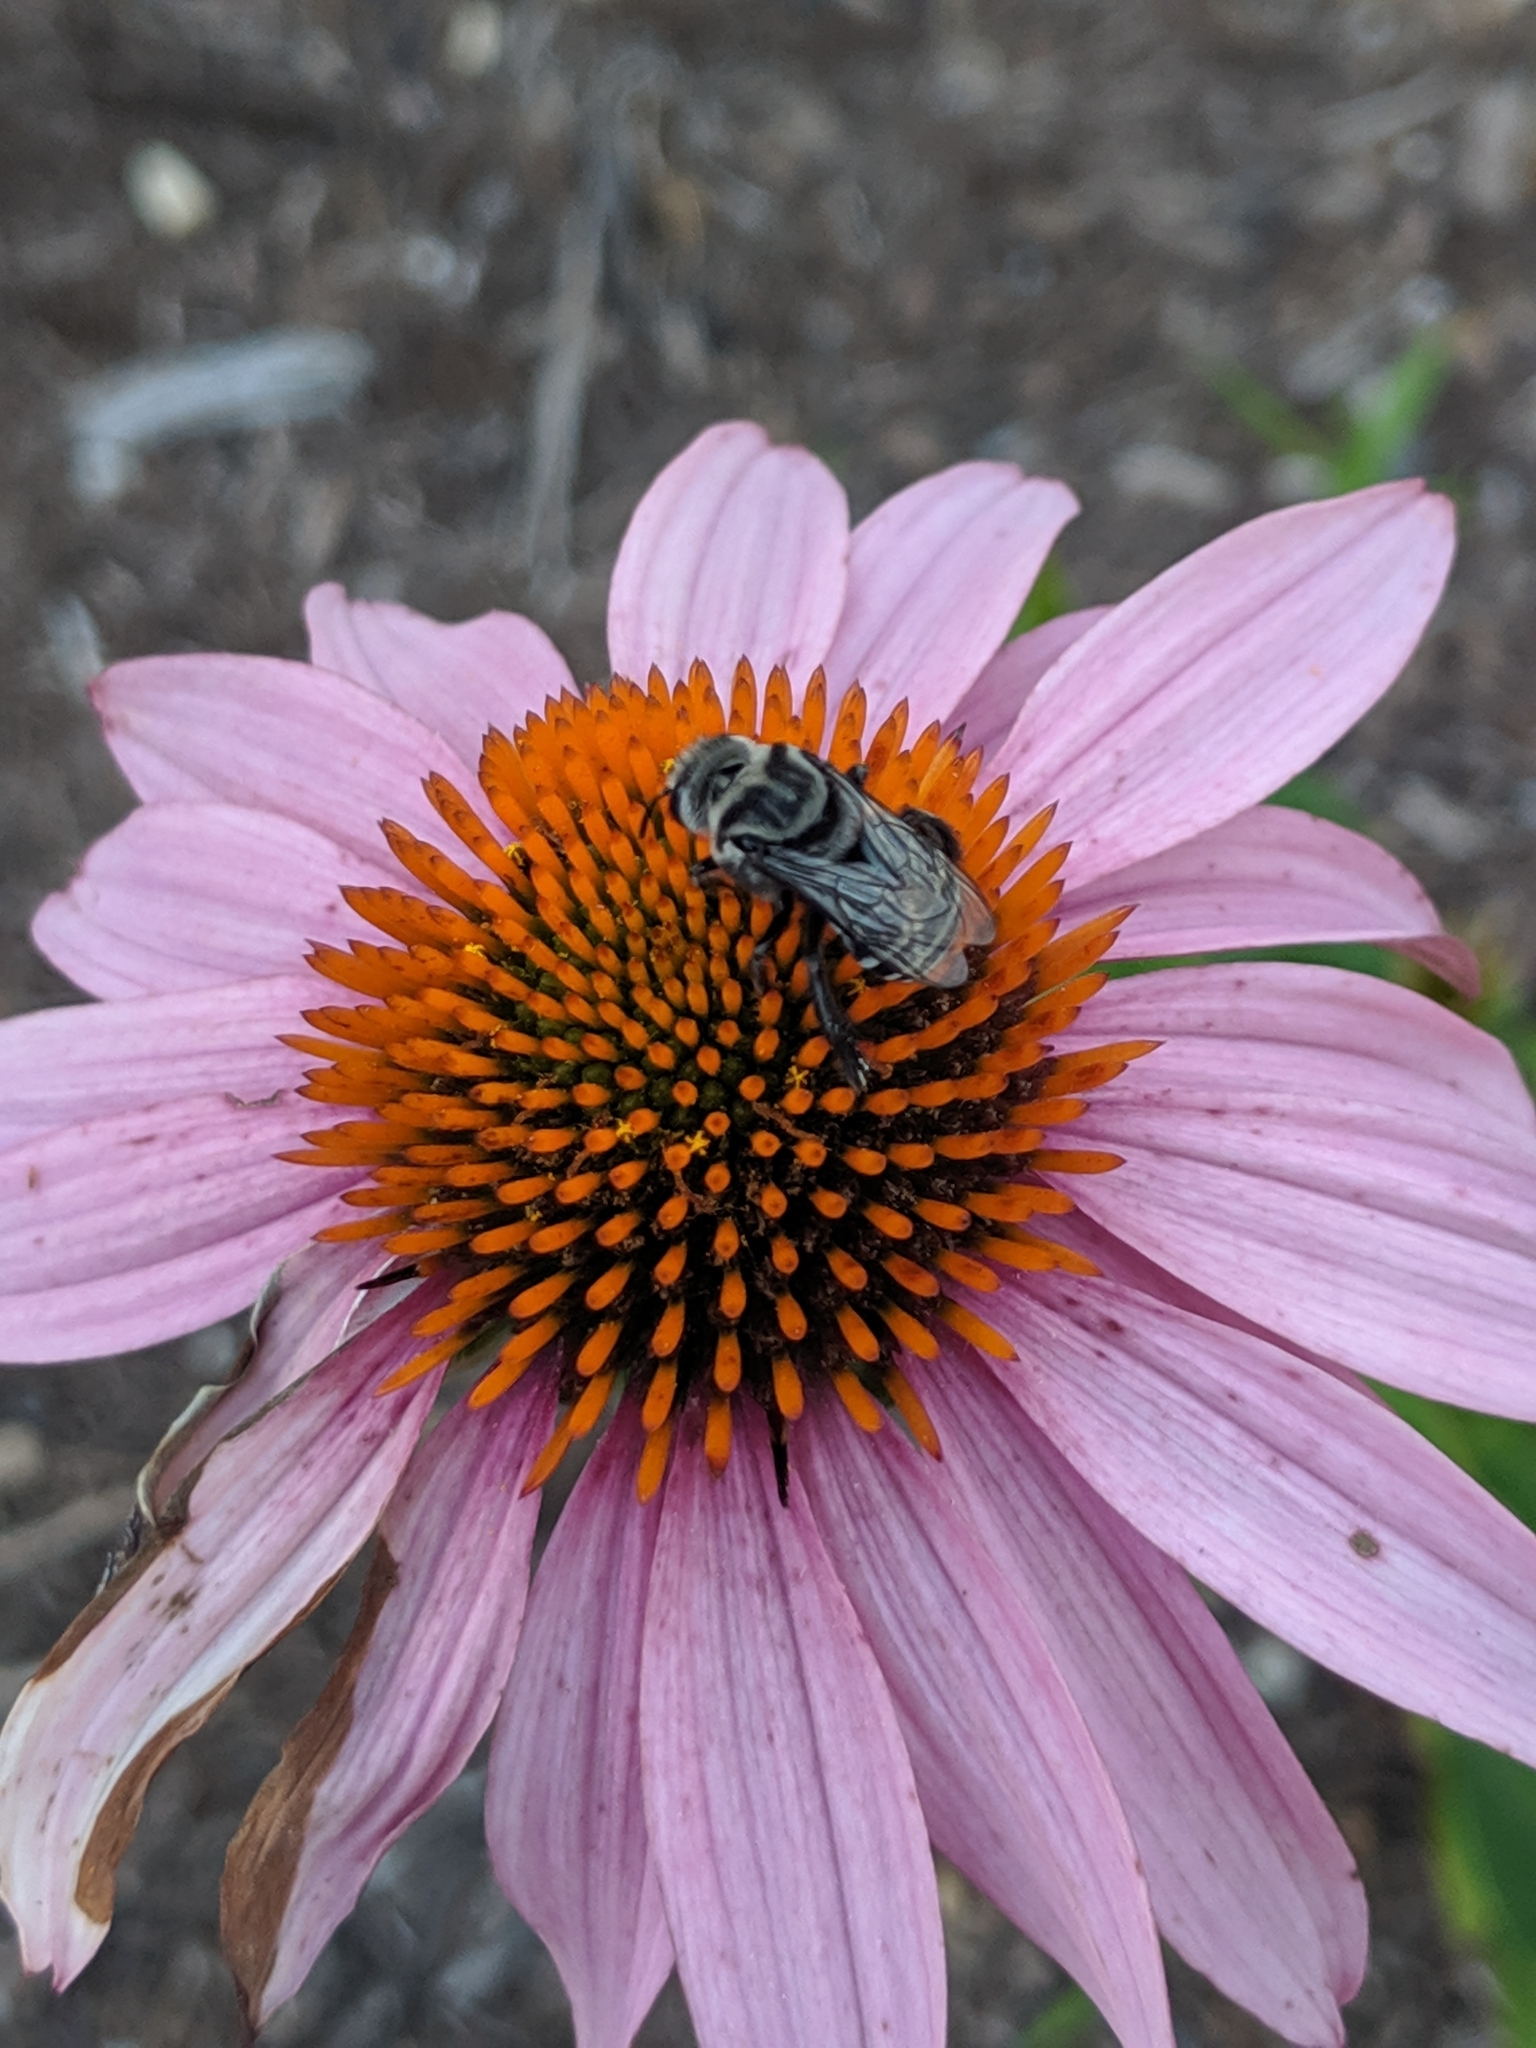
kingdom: Animalia
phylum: Arthropoda
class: Insecta
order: Hymenoptera
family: Apidae
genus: Melitoma
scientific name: Melitoma taurea
